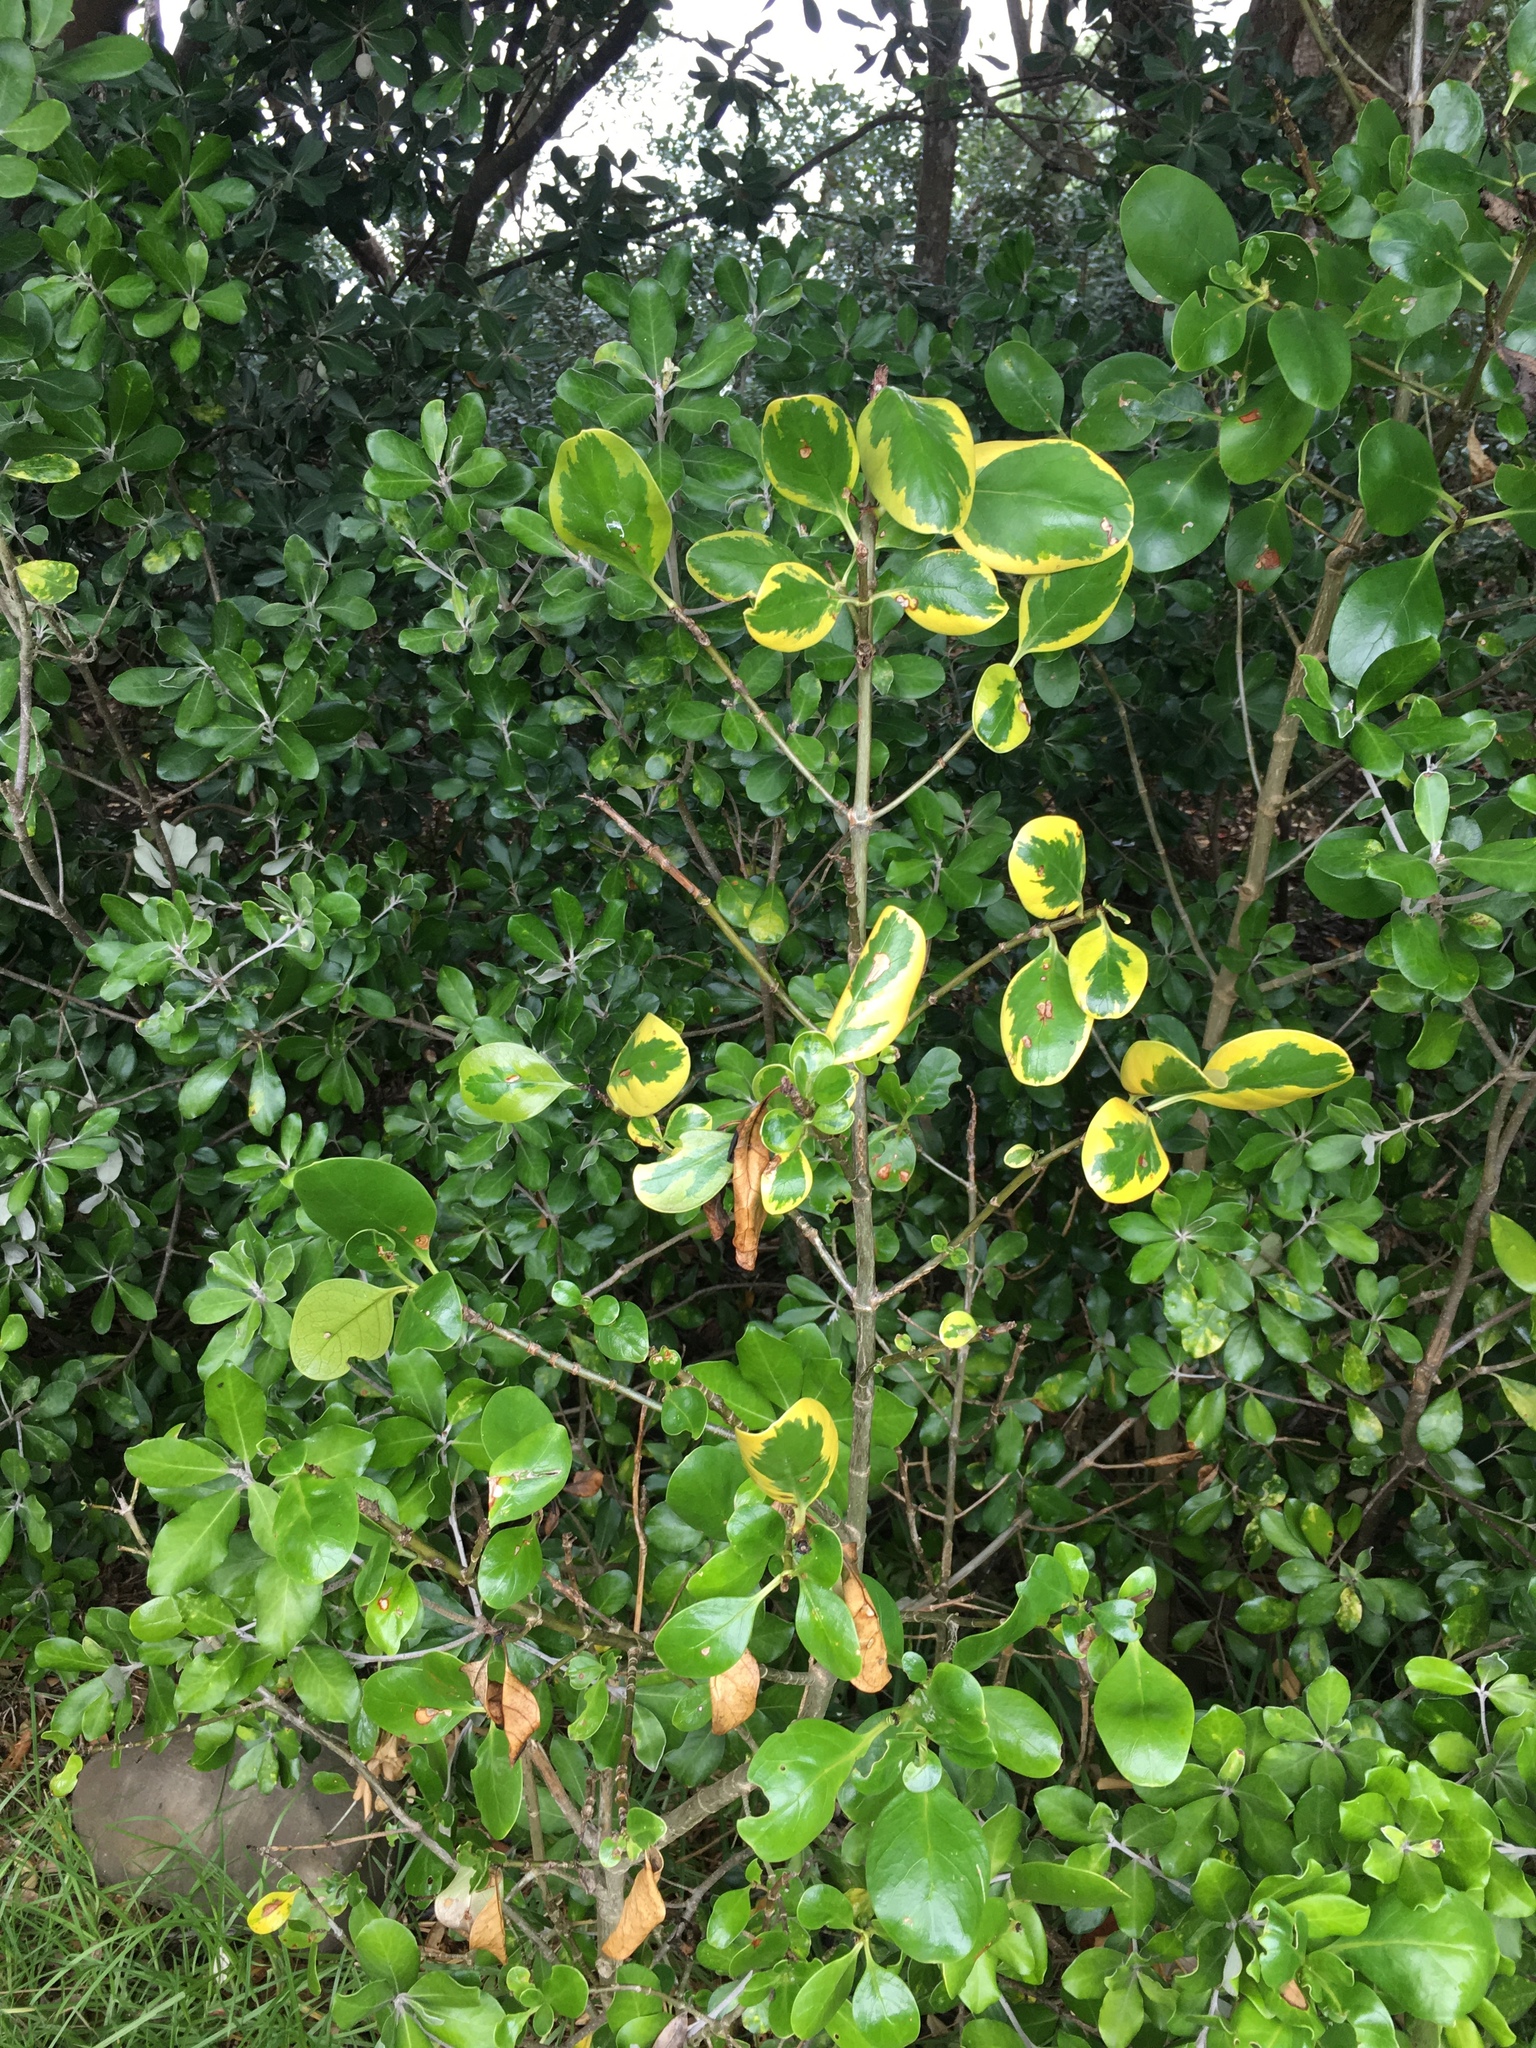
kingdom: Plantae
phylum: Tracheophyta
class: Magnoliopsida
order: Gentianales
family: Rubiaceae
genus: Coprosma
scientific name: Coprosma repens
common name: Tree bedstraw
